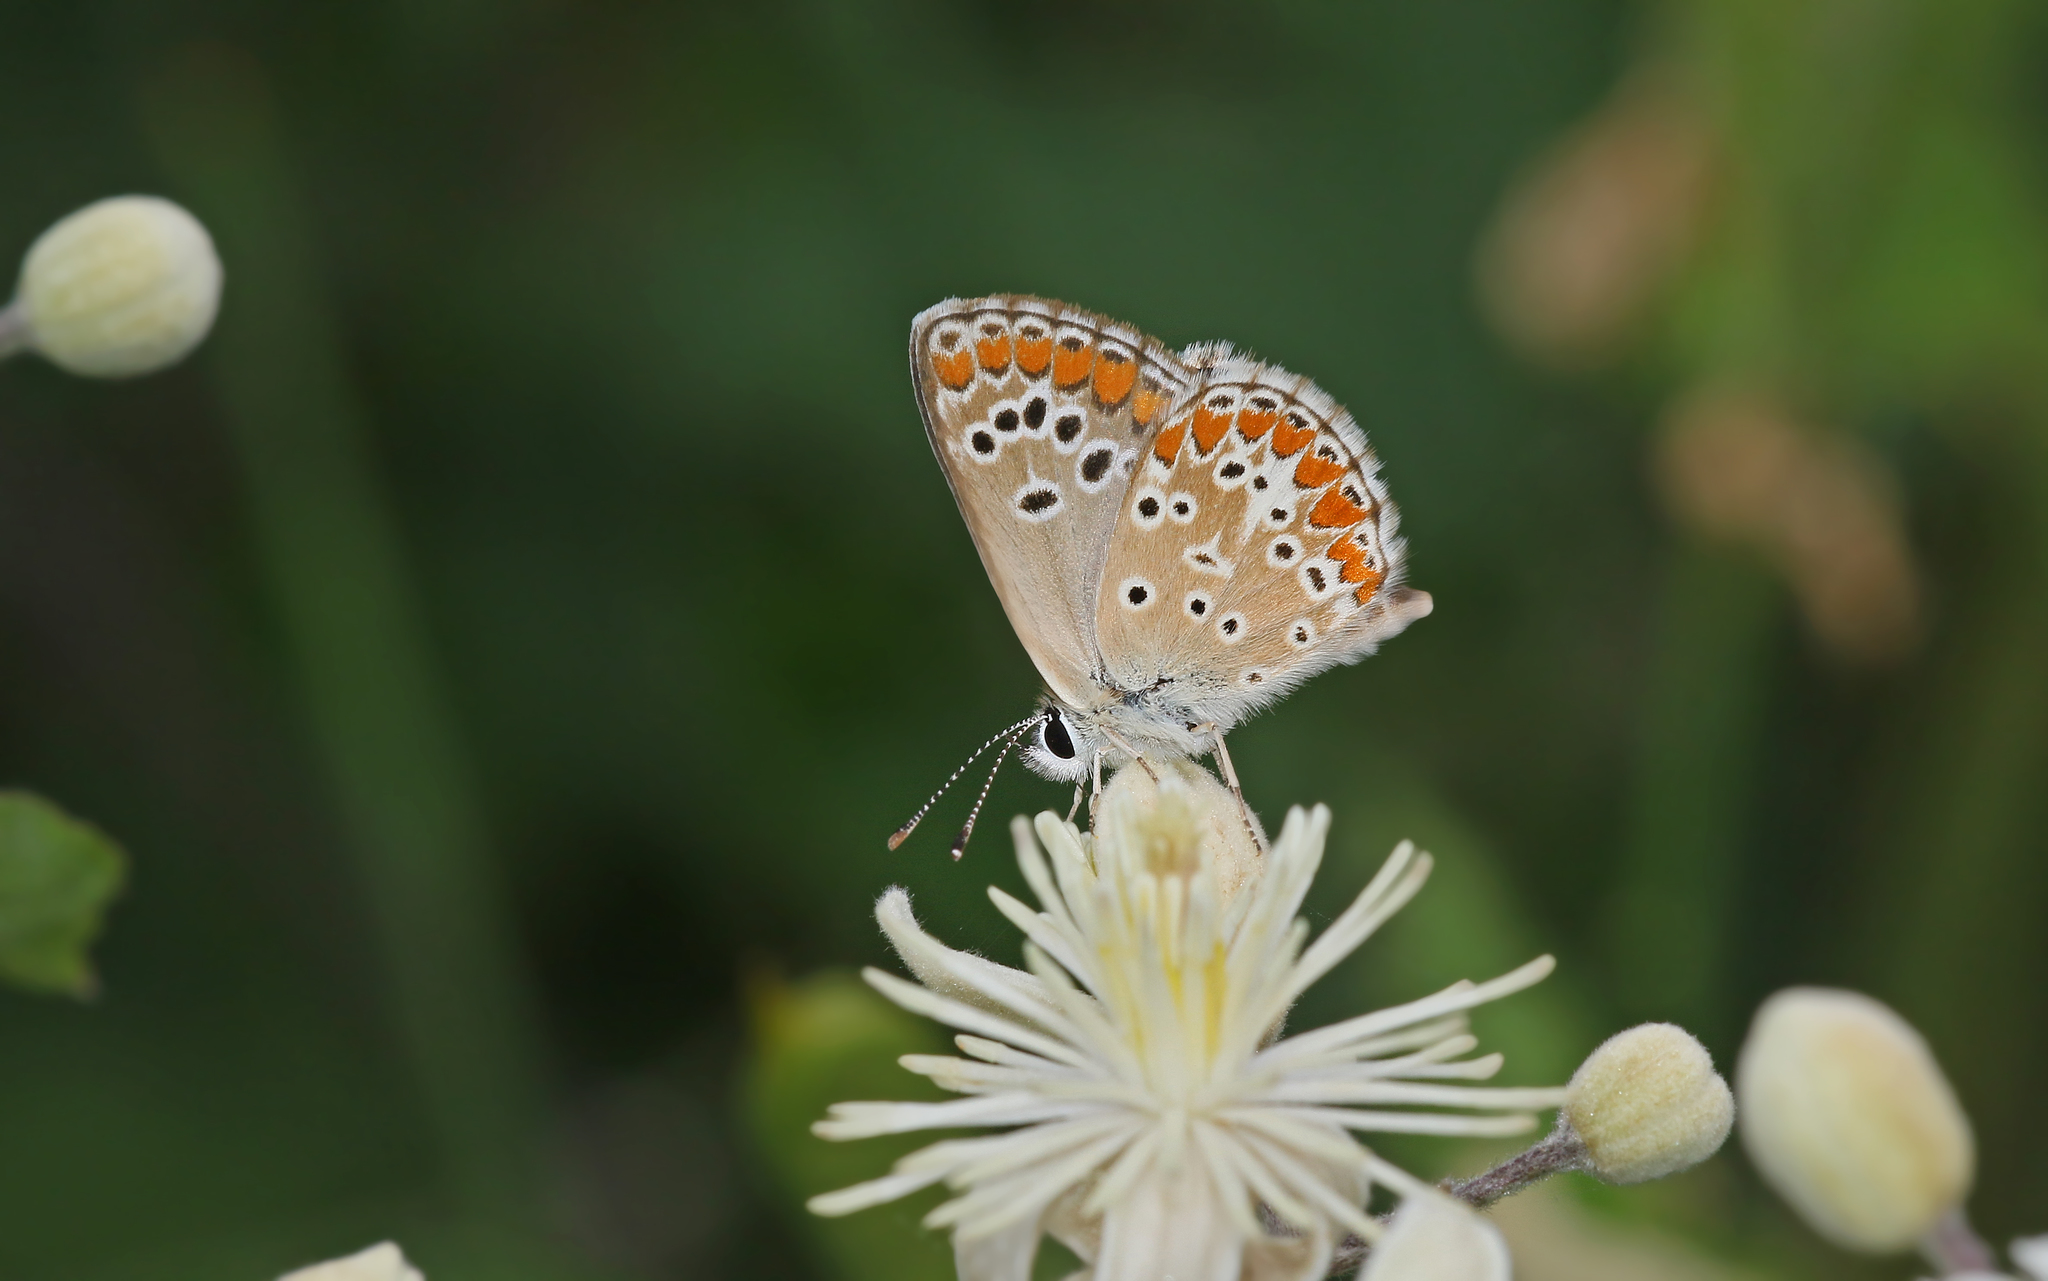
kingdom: Animalia
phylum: Arthropoda
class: Insecta
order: Lepidoptera
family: Lycaenidae
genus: Aricia
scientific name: Aricia agestis
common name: Brown argus
